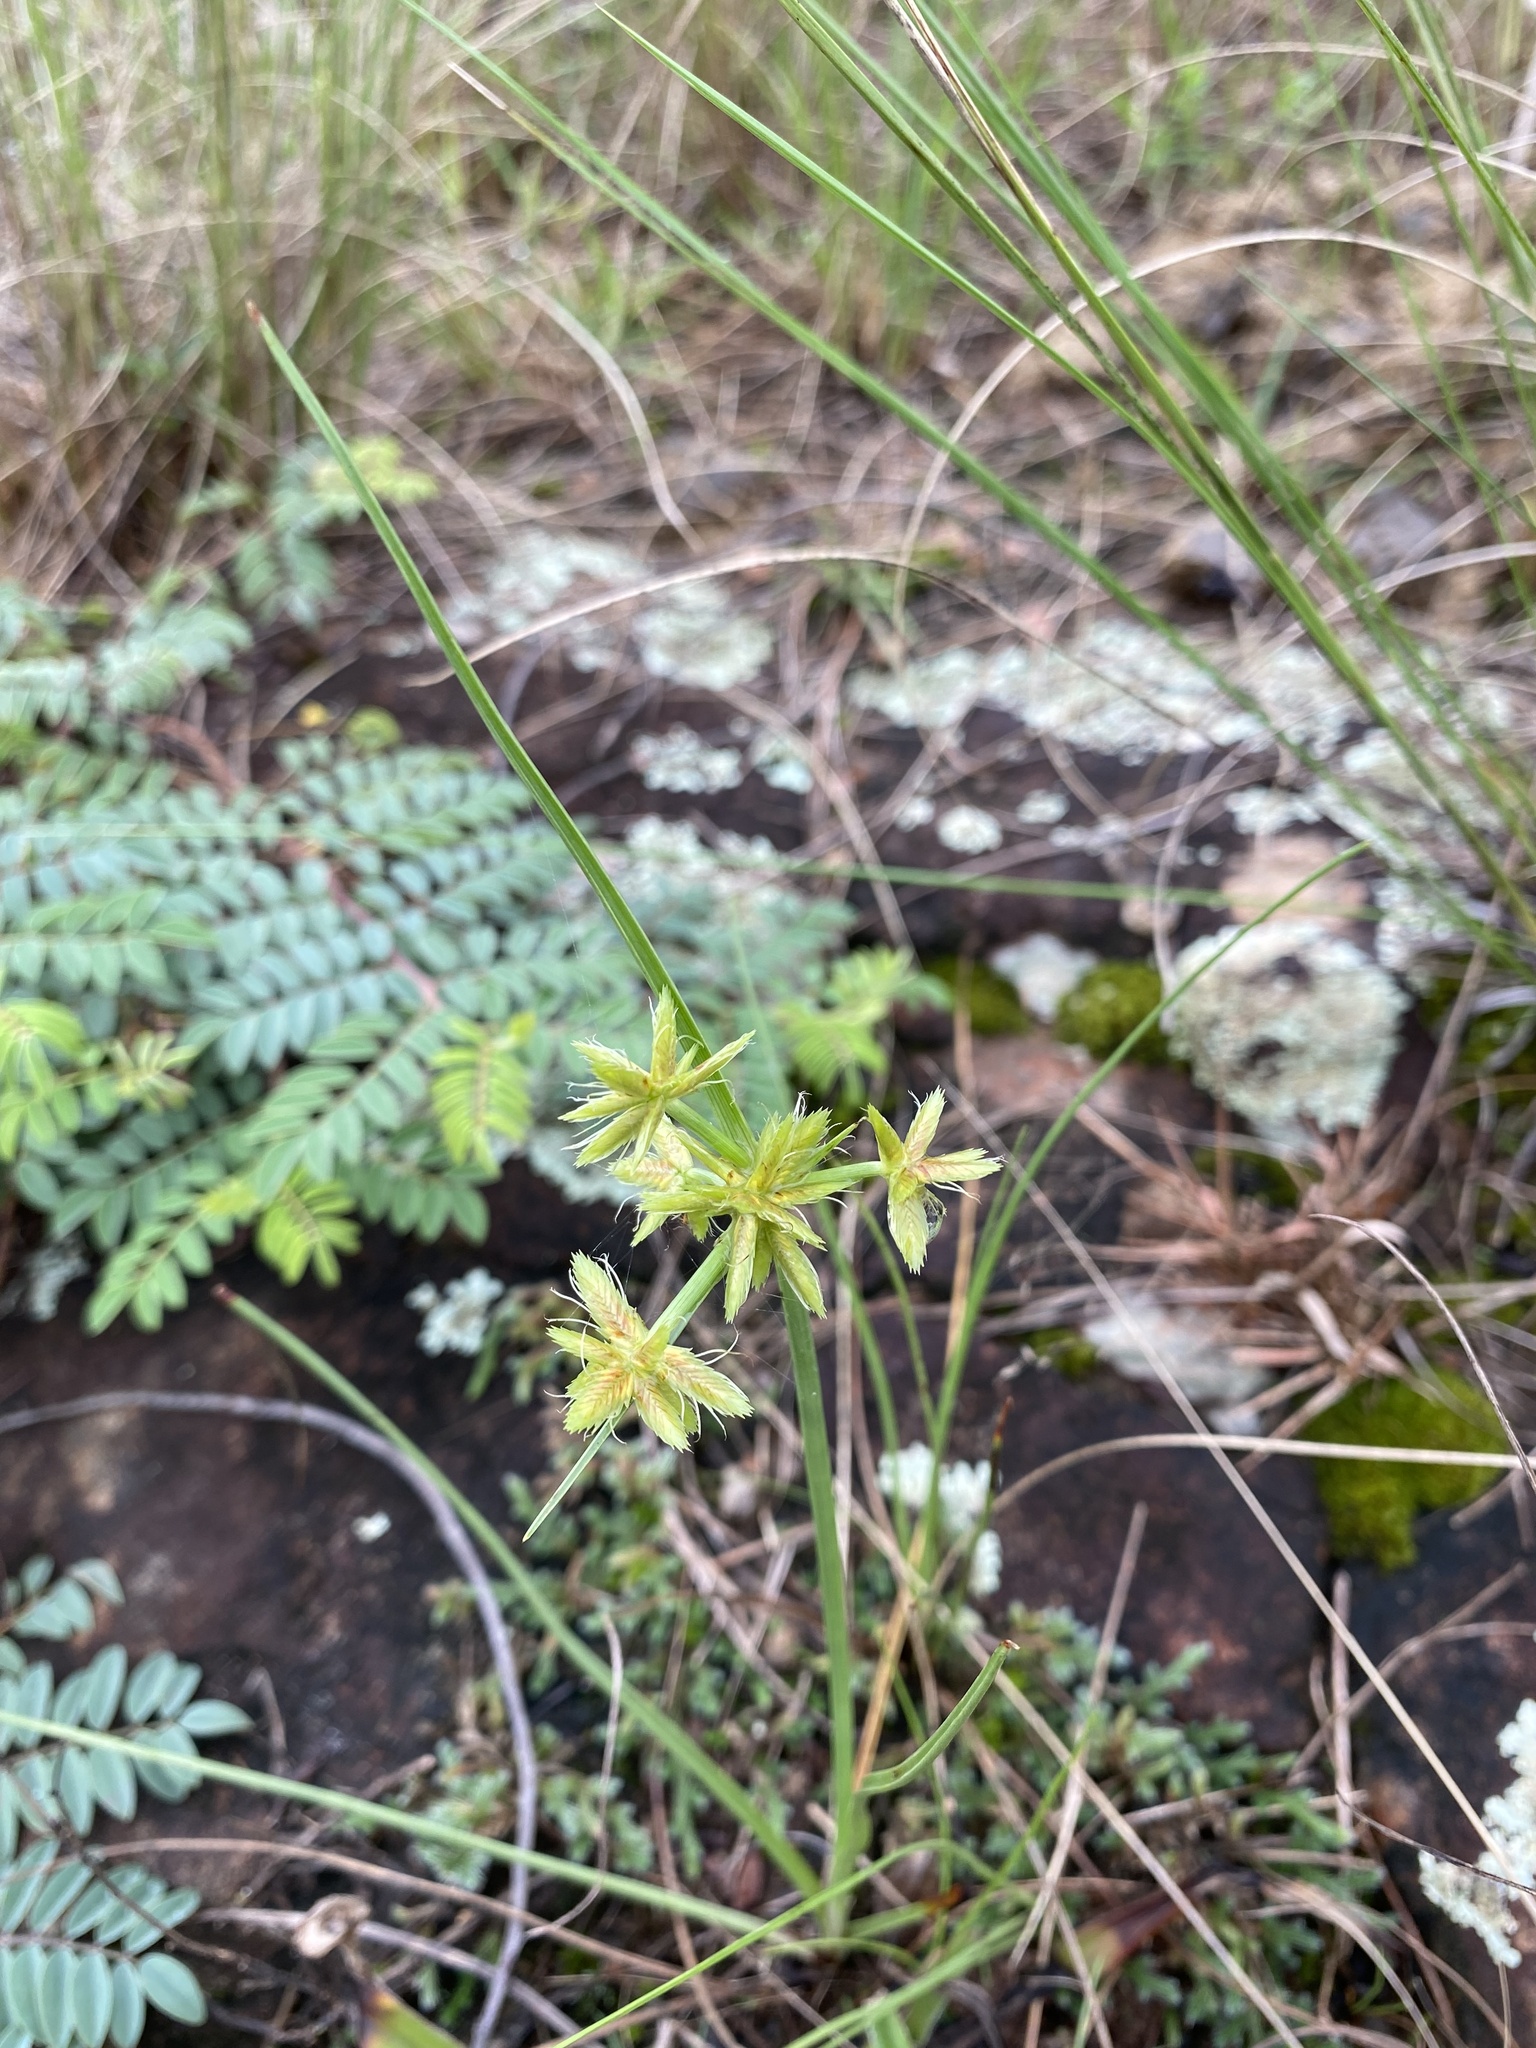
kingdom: Plantae
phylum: Tracheophyta
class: Liliopsida
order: Poales
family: Cyperaceae
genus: Cyperus
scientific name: Cyperus semitrifidus
